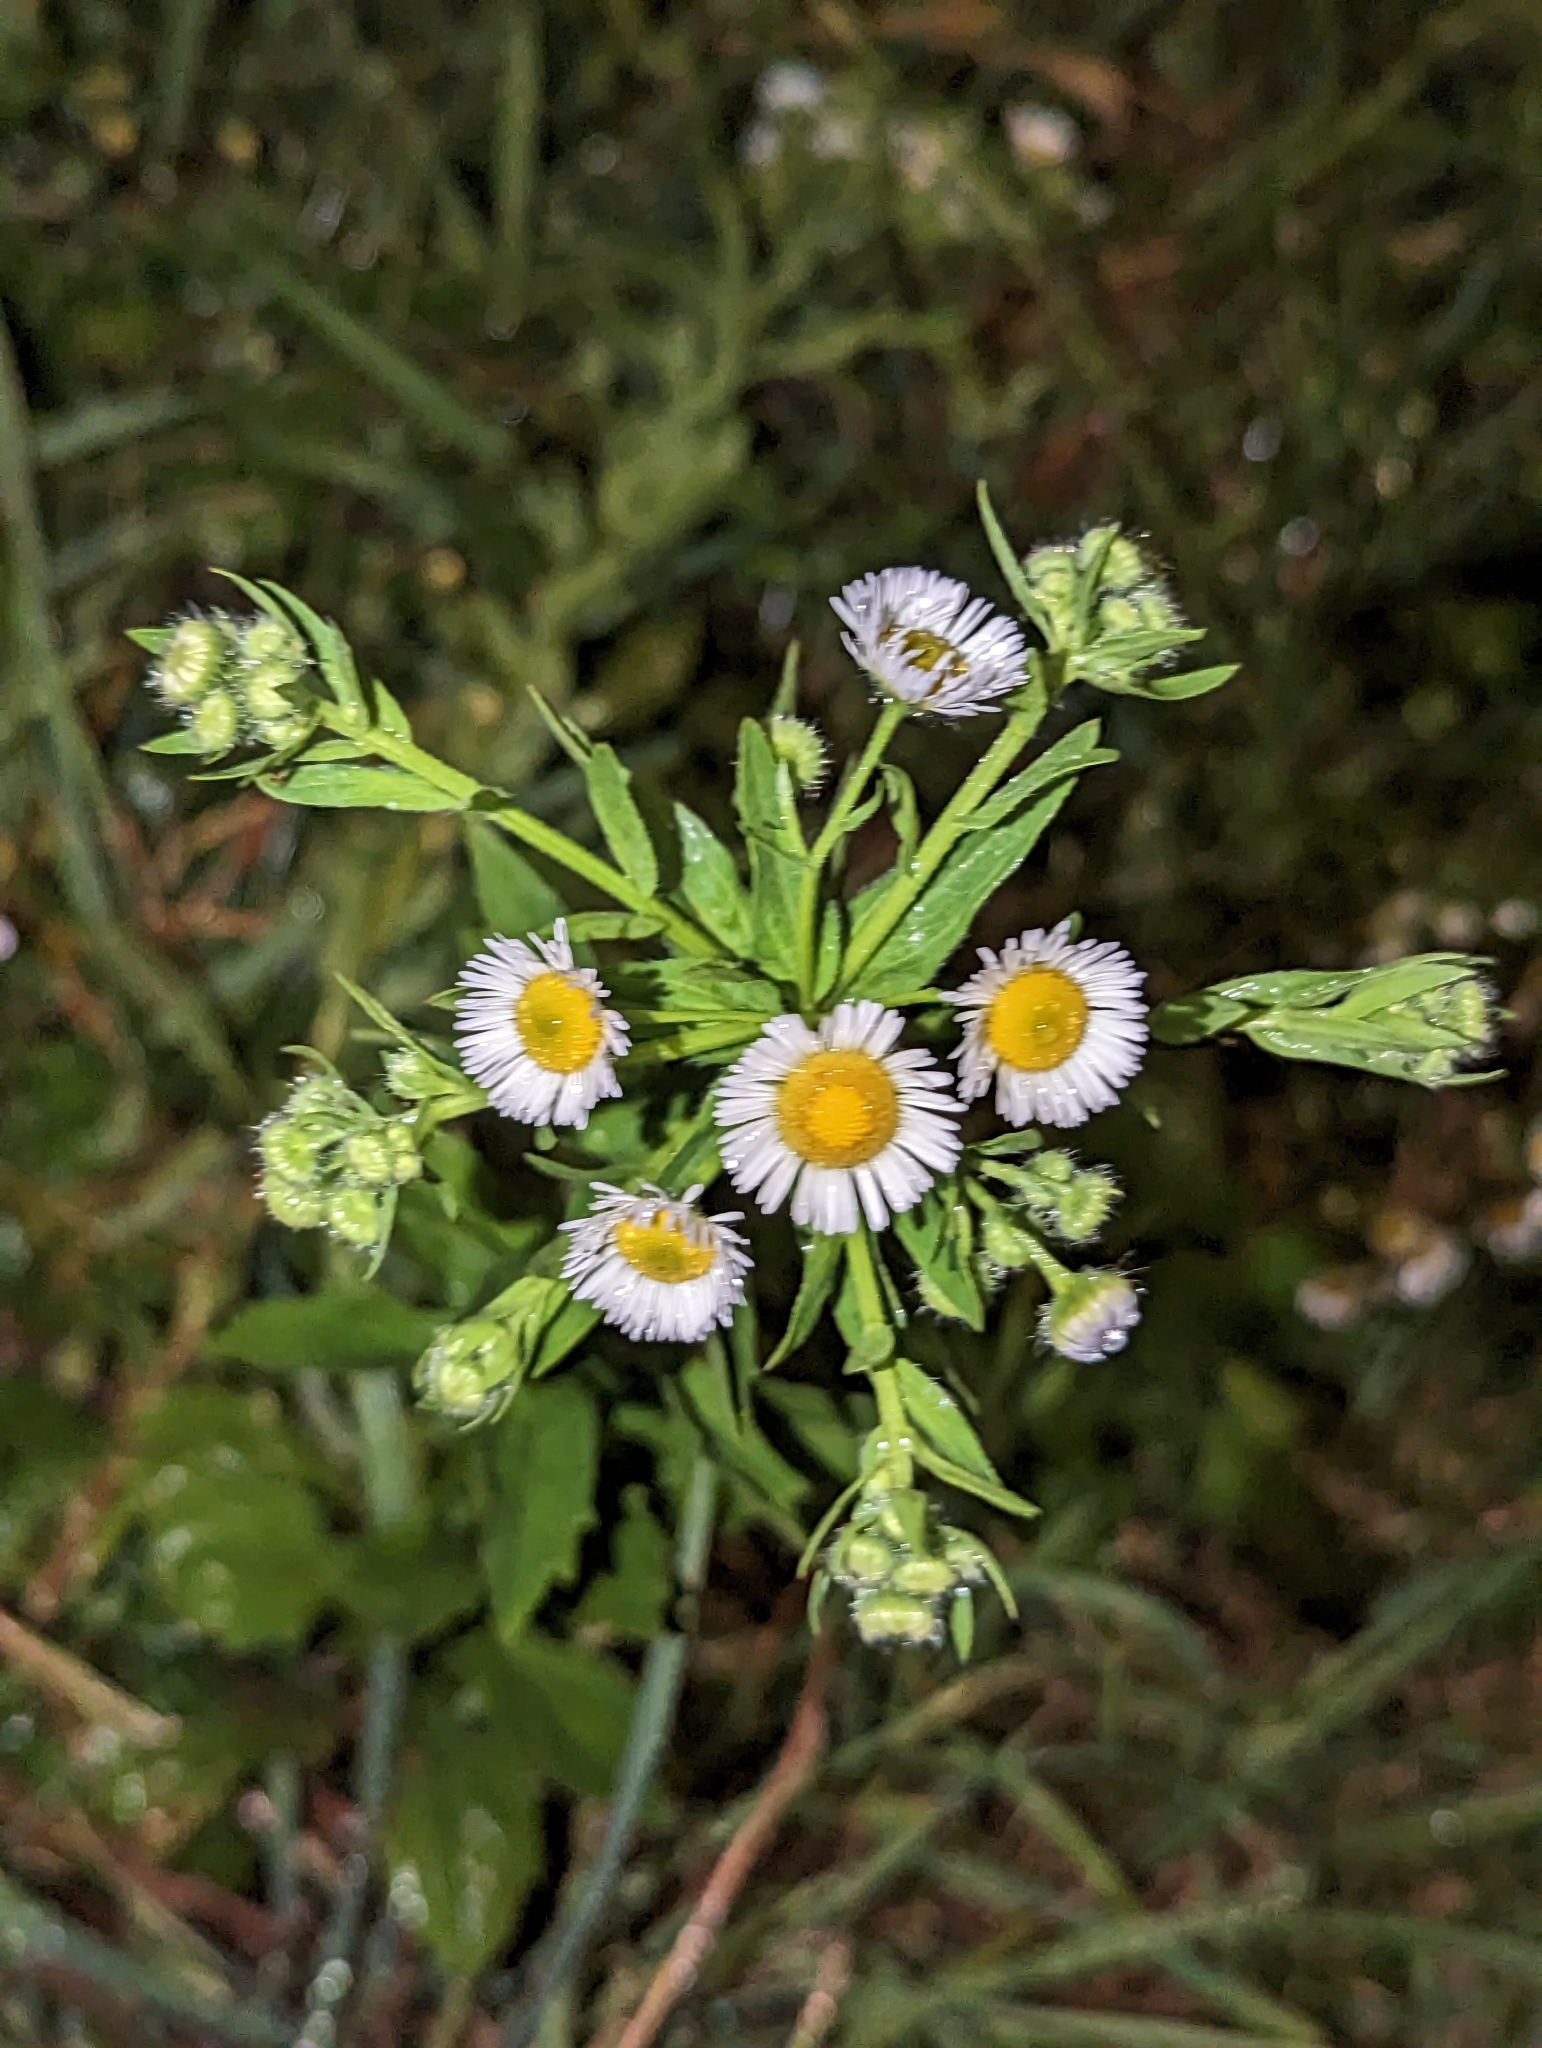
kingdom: Plantae
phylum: Tracheophyta
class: Magnoliopsida
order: Asterales
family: Asteraceae
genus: Erigeron
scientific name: Erigeron annuus
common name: Tall fleabane
